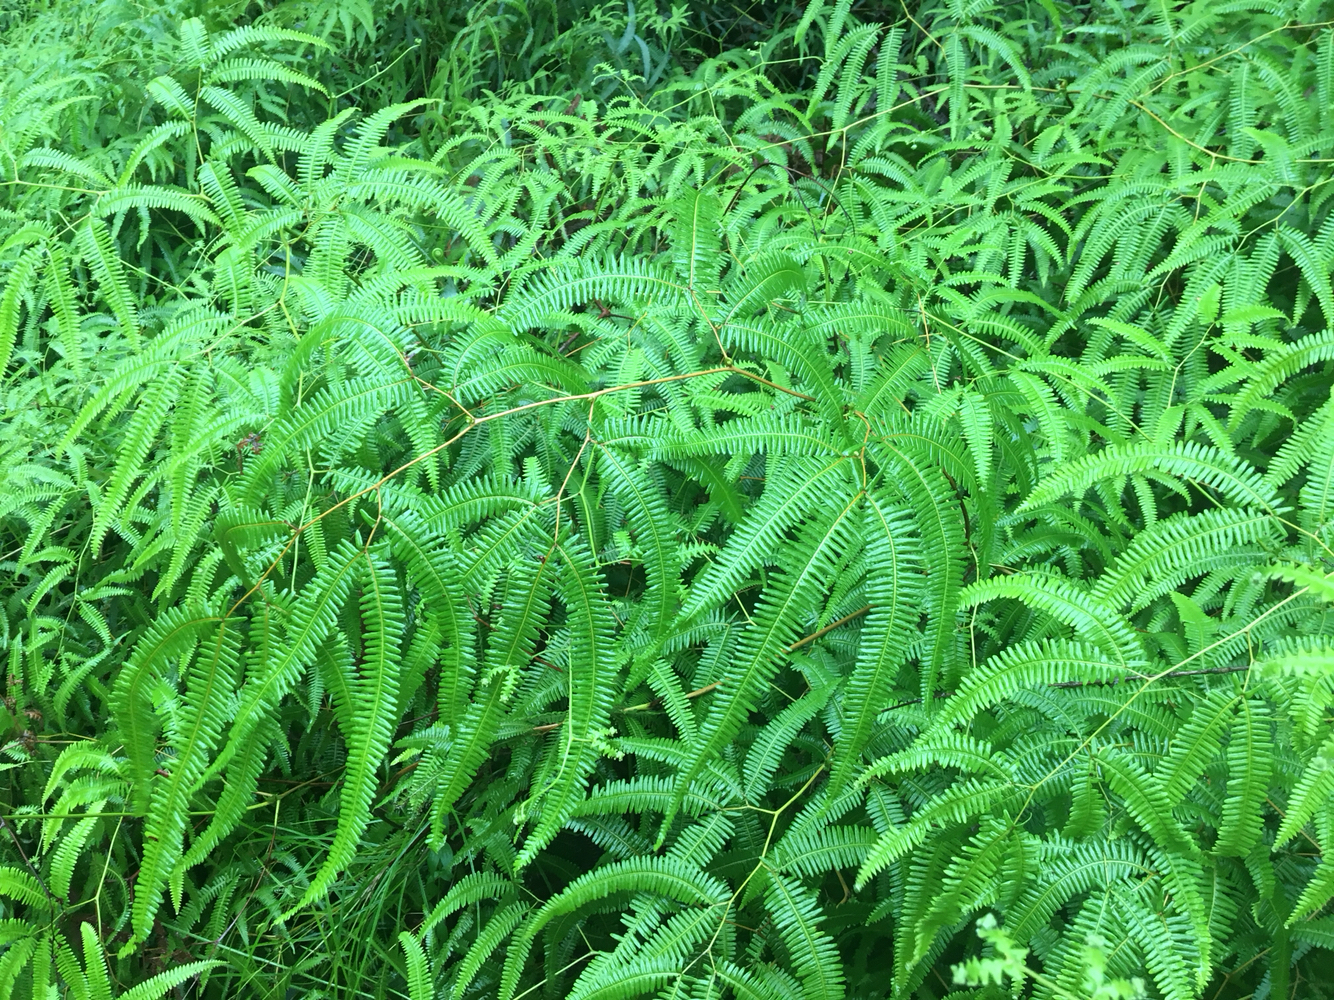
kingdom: Plantae
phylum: Tracheophyta
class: Polypodiopsida
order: Gleicheniales
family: Gleicheniaceae
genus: Gleichenella
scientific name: Gleichenella pectinata
